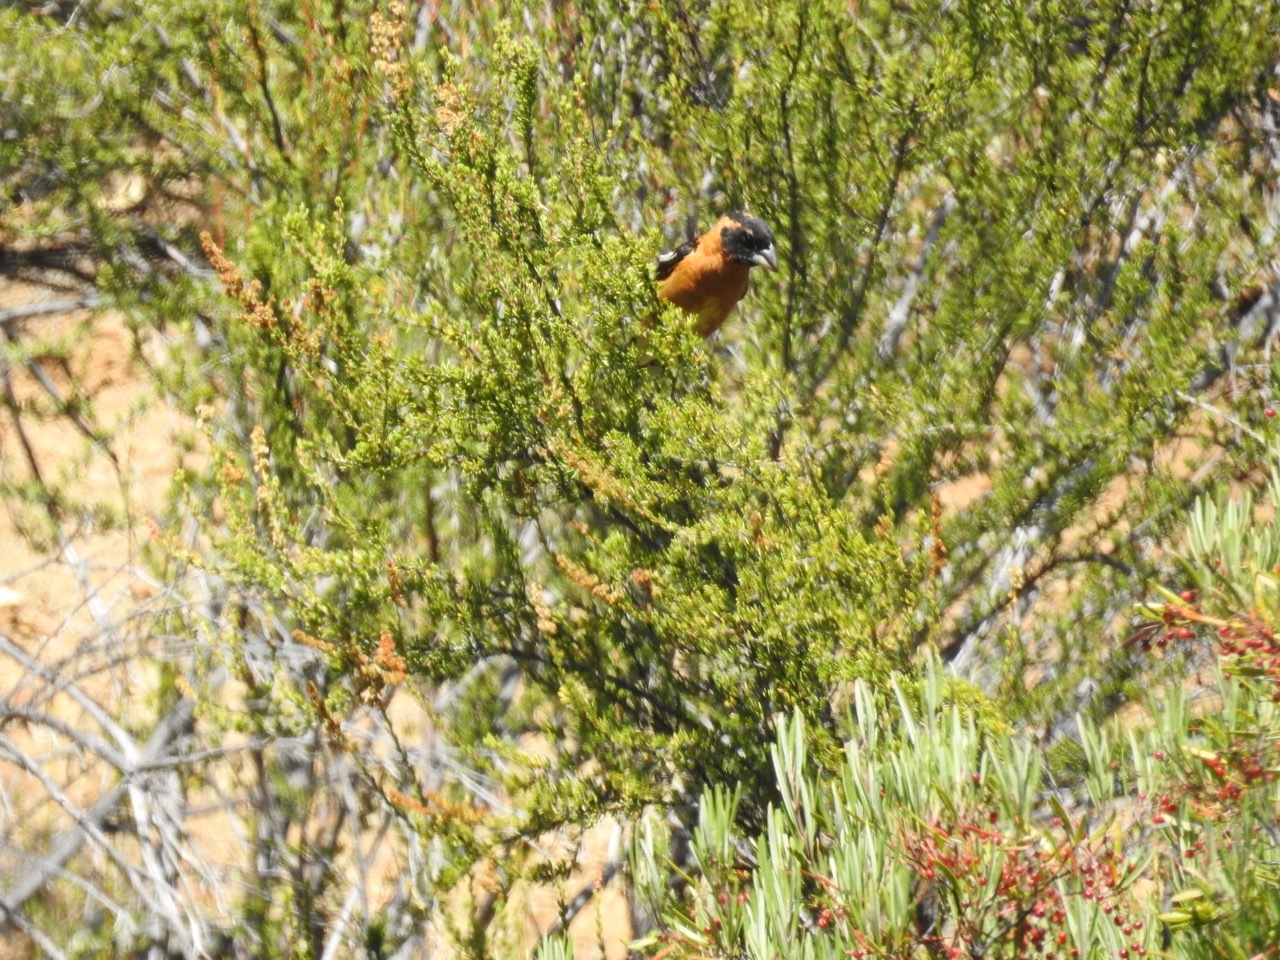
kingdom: Animalia
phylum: Chordata
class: Aves
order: Passeriformes
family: Cardinalidae
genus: Pheucticus
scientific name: Pheucticus melanocephalus
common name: Black-headed grosbeak
